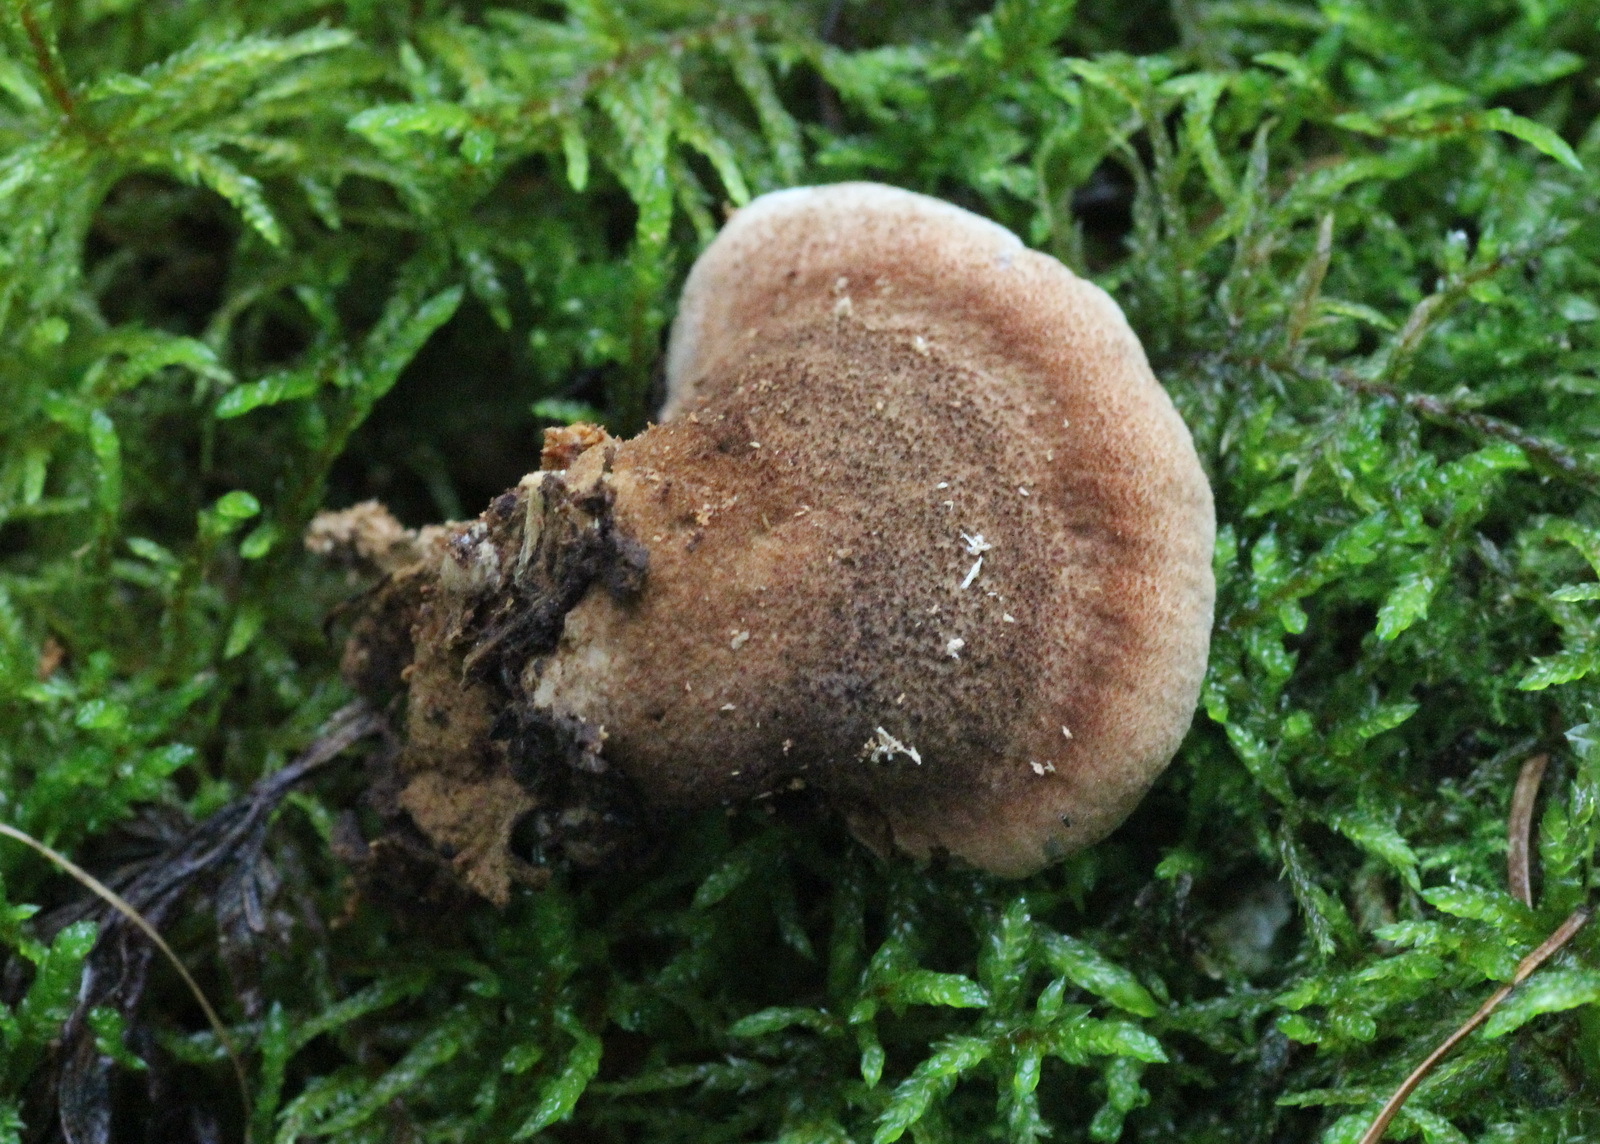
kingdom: Fungi
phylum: Basidiomycota
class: Agaricomycetes
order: Polyporales
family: Ischnodermataceae
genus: Ischnoderma
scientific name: Ischnoderma benzoinum
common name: Benzoin bracket
